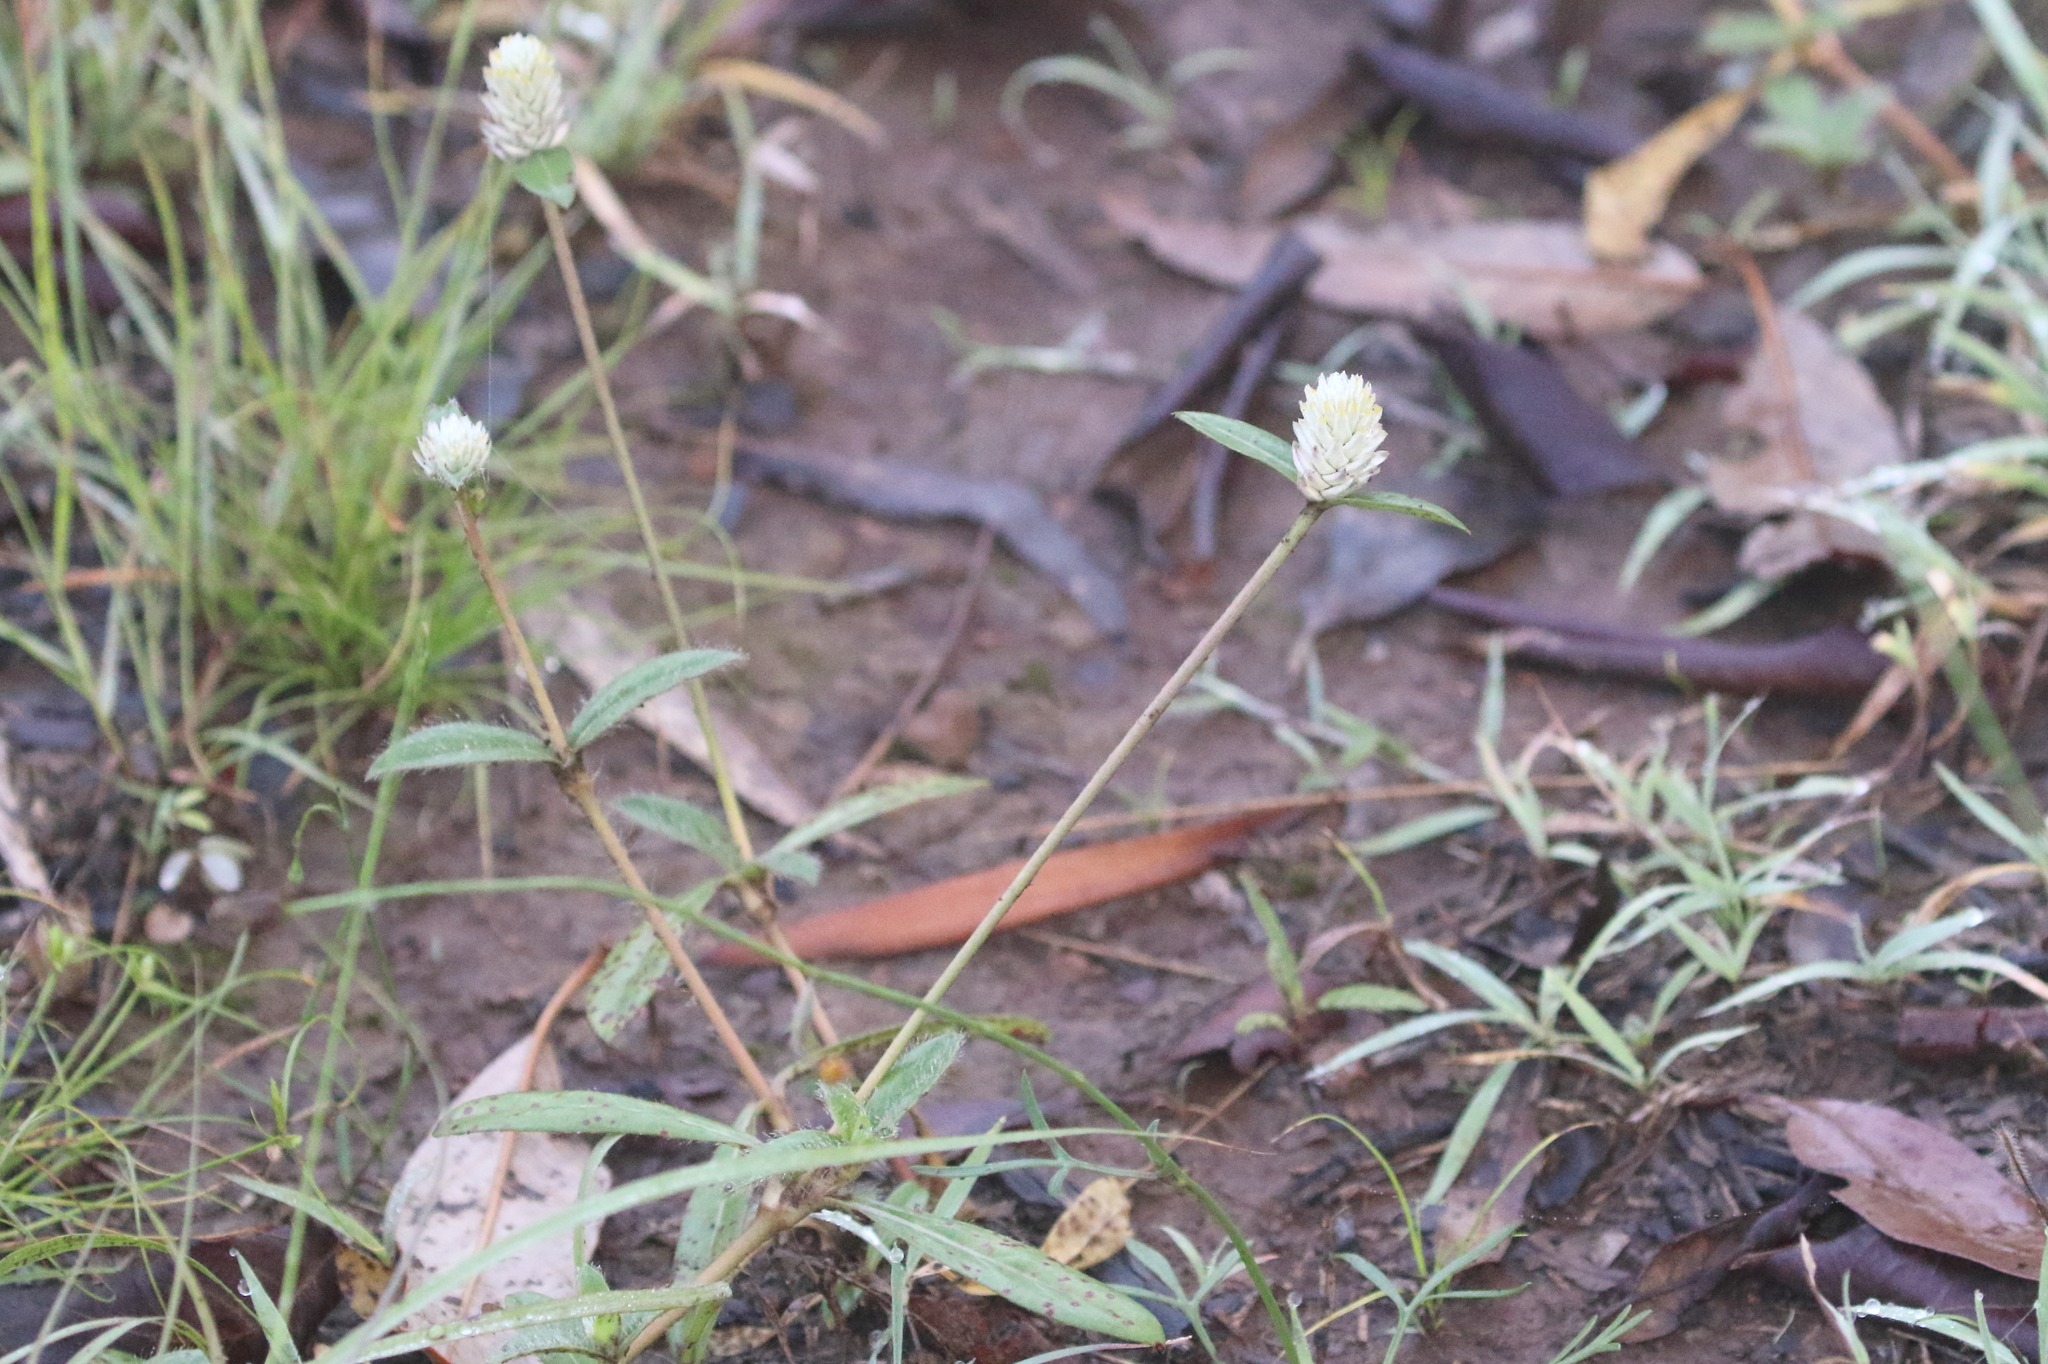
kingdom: Plantae
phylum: Tracheophyta
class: Magnoliopsida
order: Caryophyllales
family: Amaranthaceae
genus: Gomphrena
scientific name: Gomphrena celosioides
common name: Gomphrena-weed
